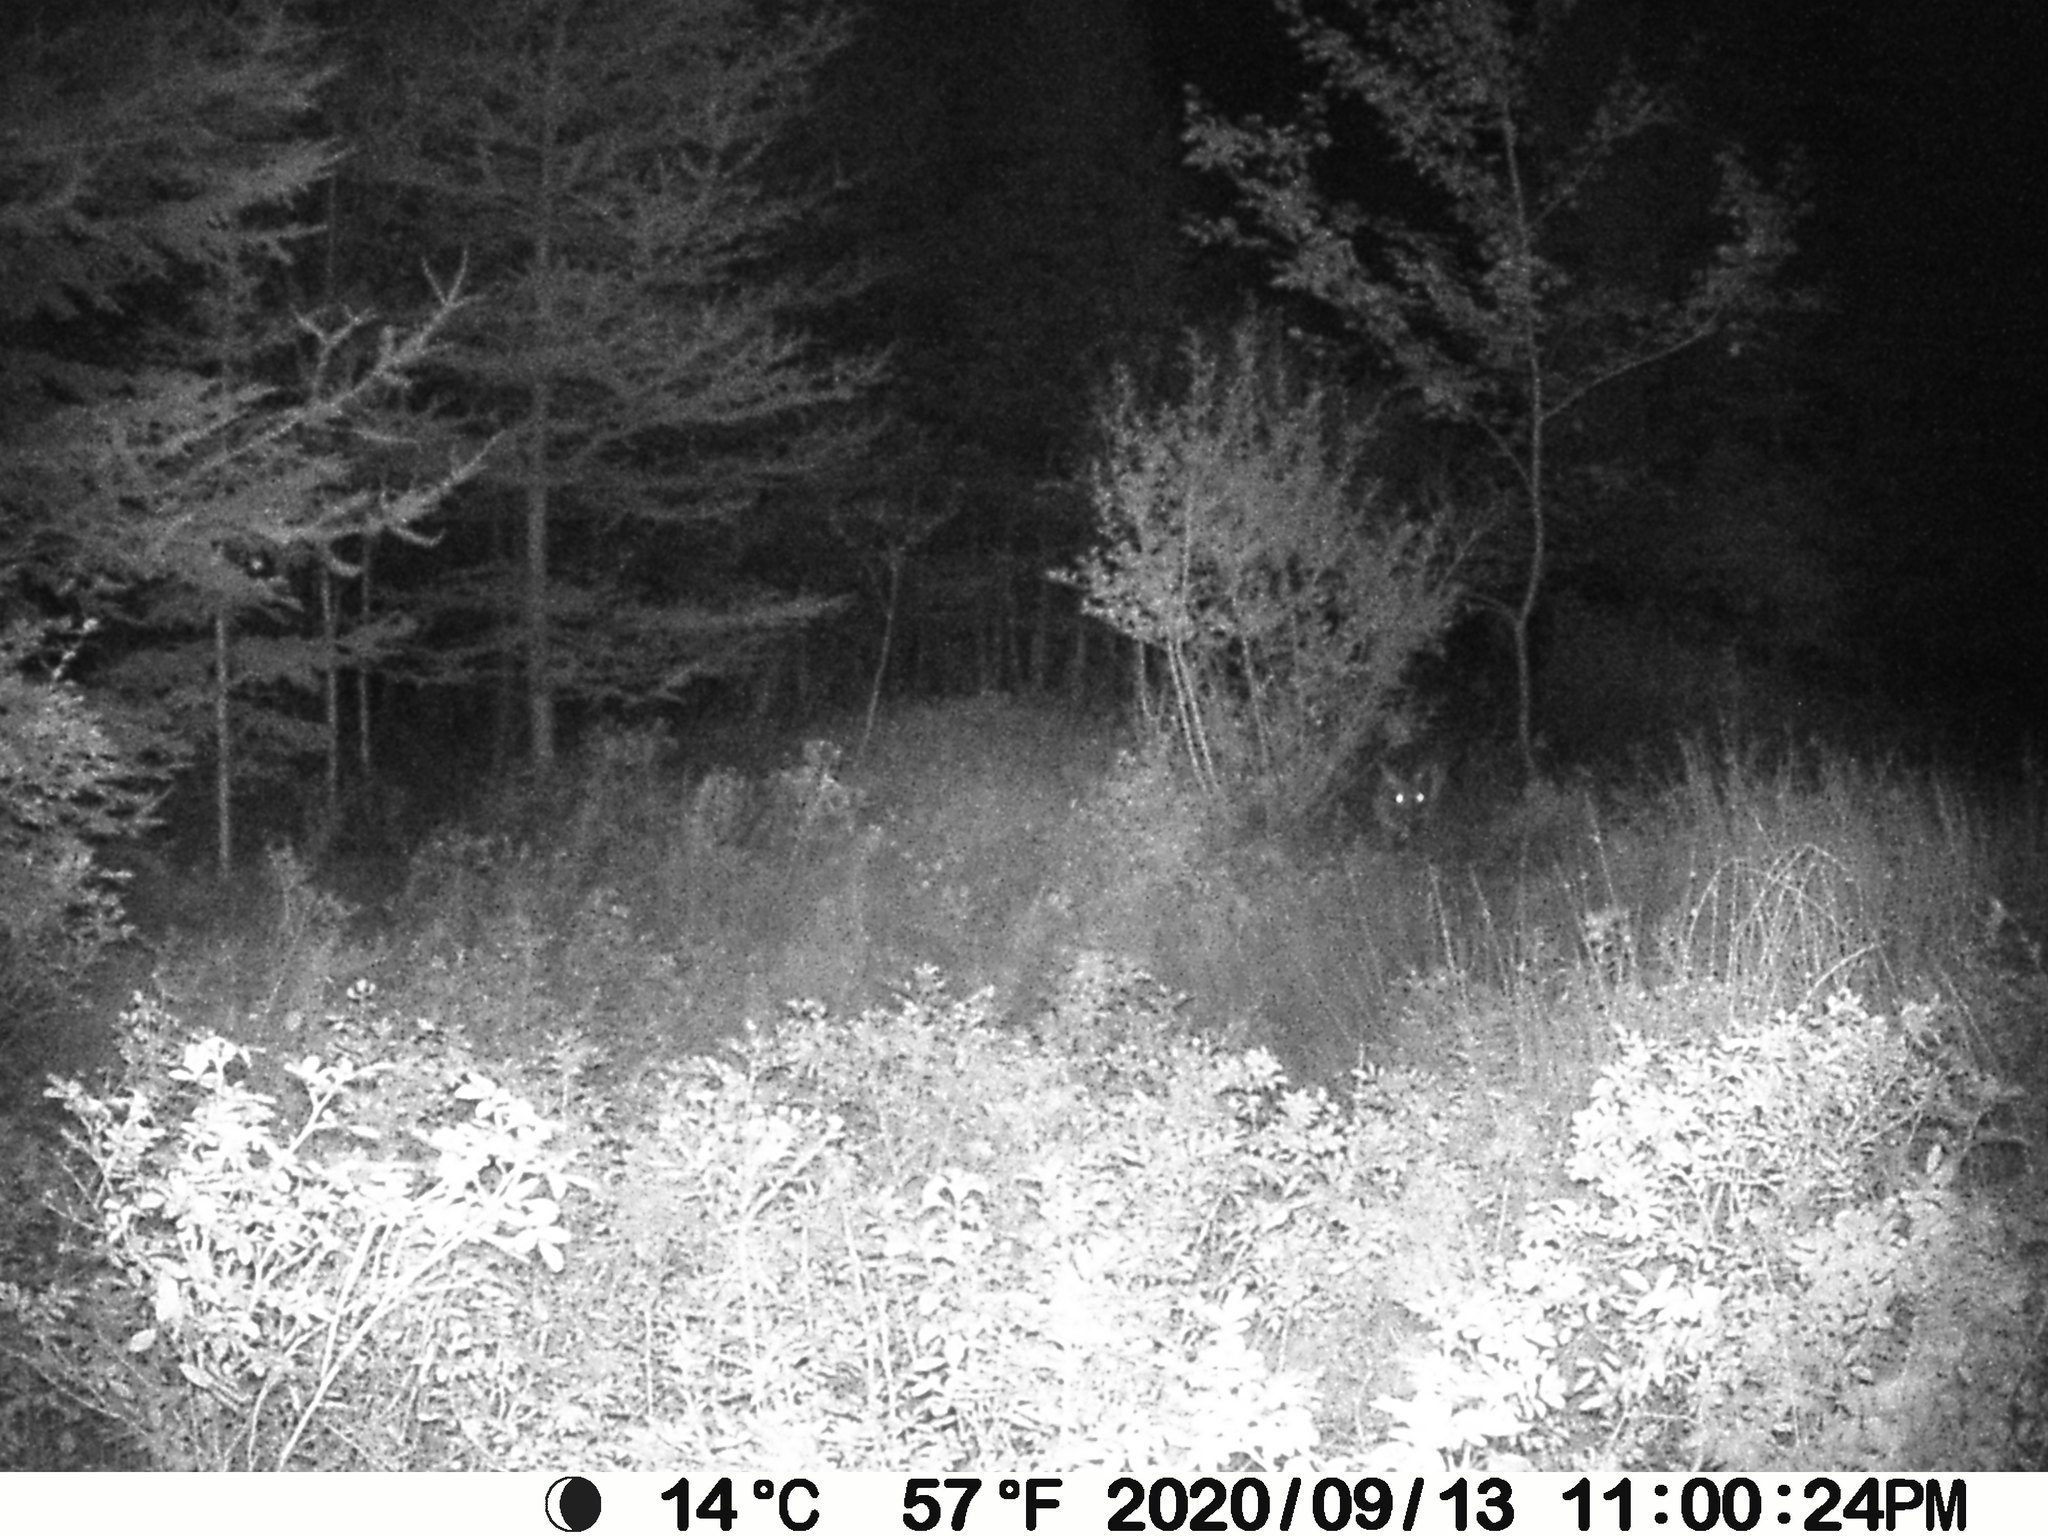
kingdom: Animalia
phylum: Chordata
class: Mammalia
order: Artiodactyla
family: Cervidae
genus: Odocoileus
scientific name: Odocoileus virginianus
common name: White-tailed deer
